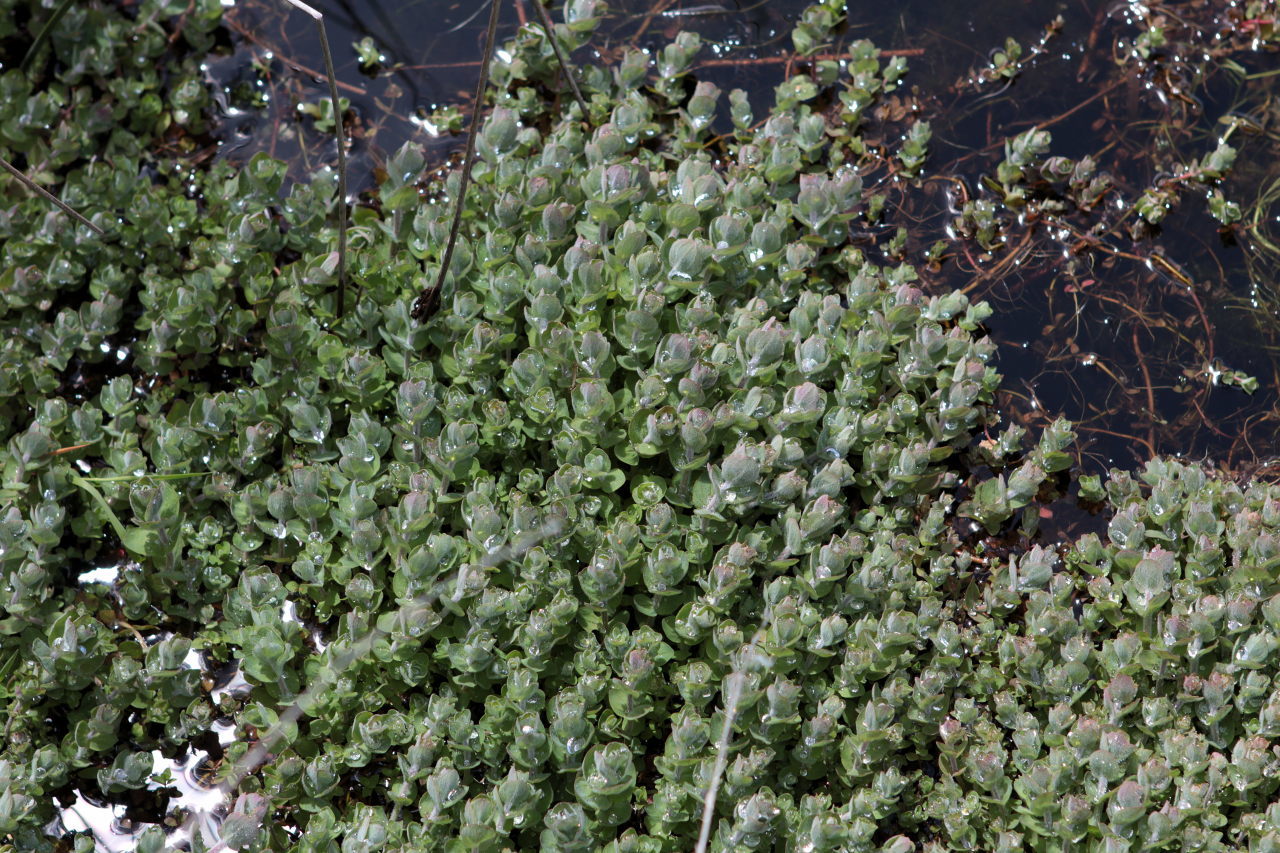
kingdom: Plantae
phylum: Tracheophyta
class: Magnoliopsida
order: Malpighiales
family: Hypericaceae
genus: Hypericum
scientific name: Hypericum elodes
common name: Marsh st. john's-wort
